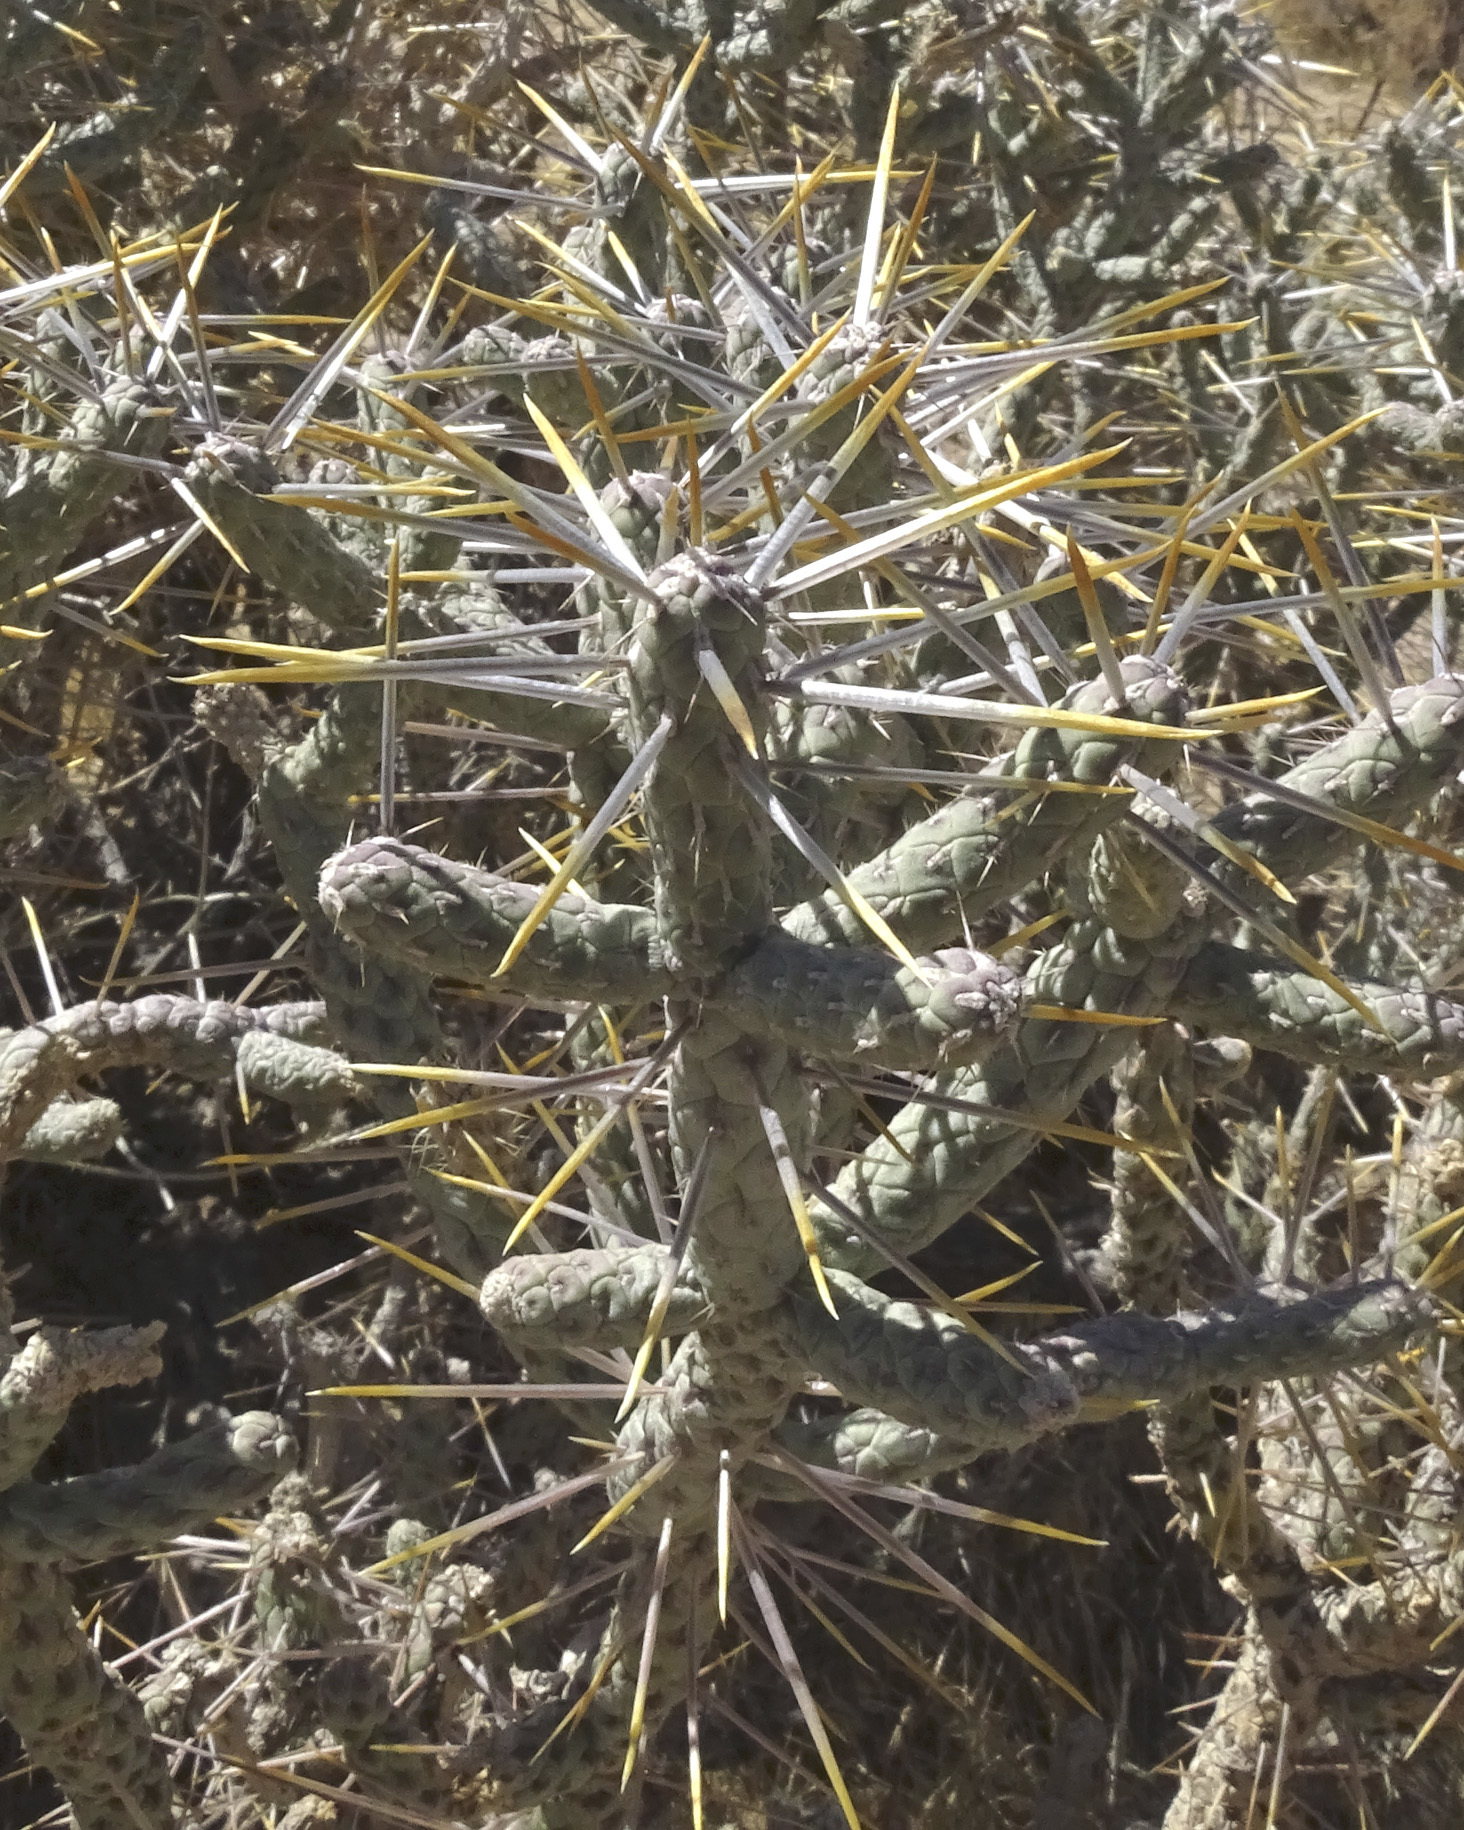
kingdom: Plantae
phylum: Tracheophyta
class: Magnoliopsida
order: Caryophyllales
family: Cactaceae
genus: Cylindropuntia
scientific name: Cylindropuntia ramosissima
